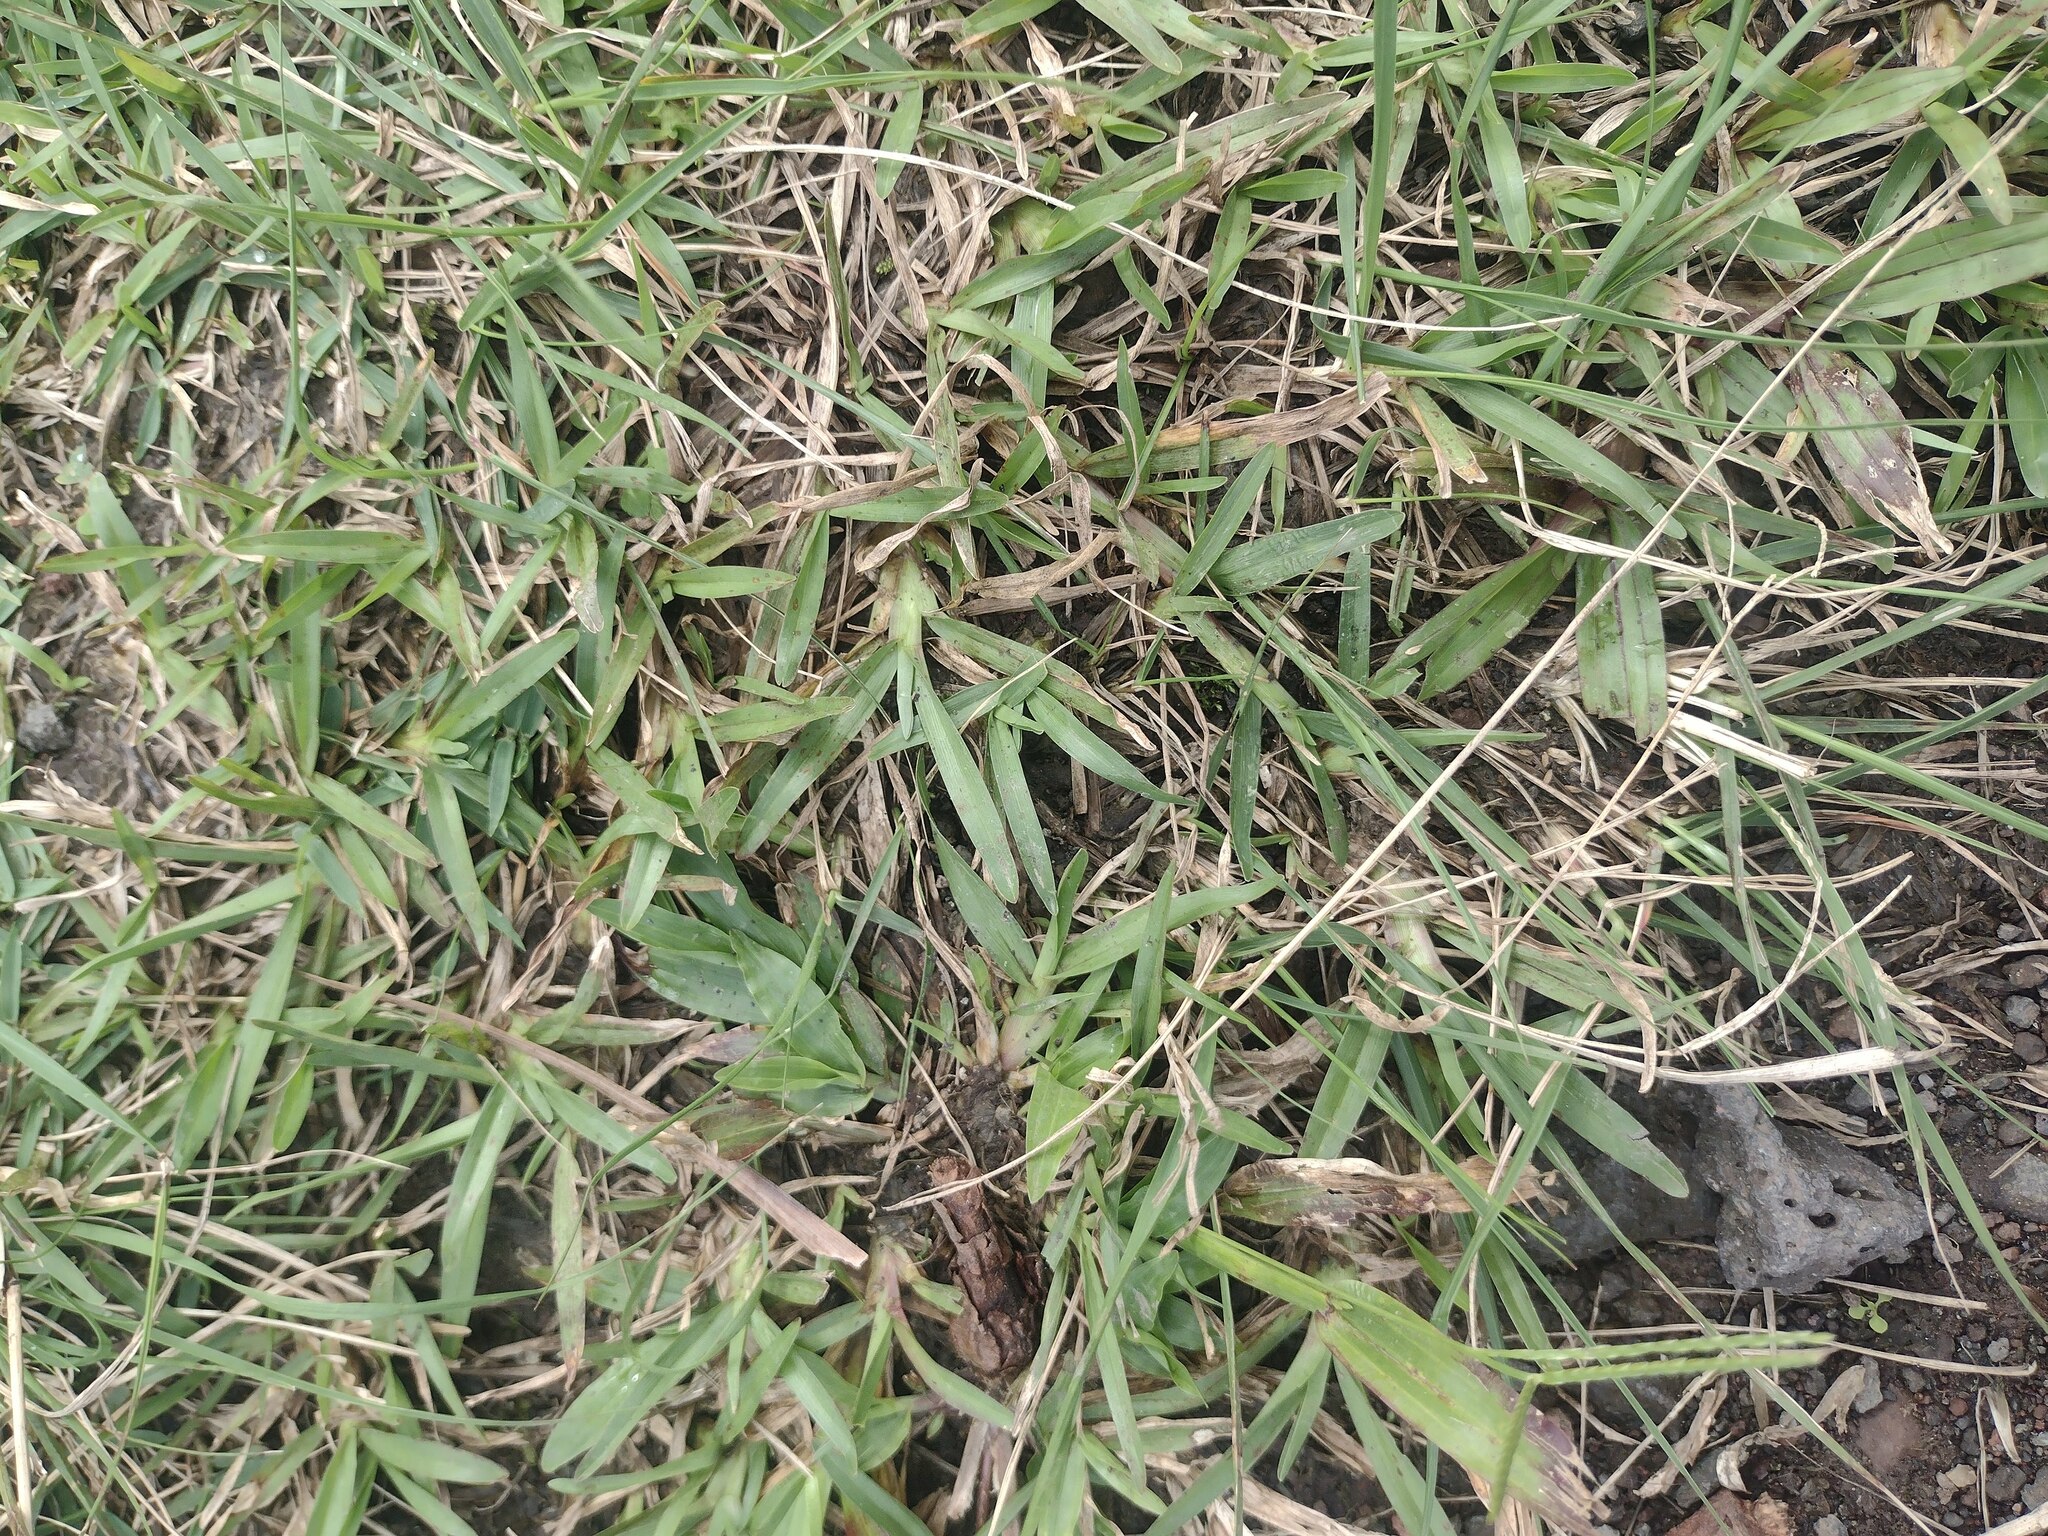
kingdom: Plantae
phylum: Tracheophyta
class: Liliopsida
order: Poales
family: Poaceae
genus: Axonopus
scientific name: Axonopus fissifolius
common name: Common carpetgrass
